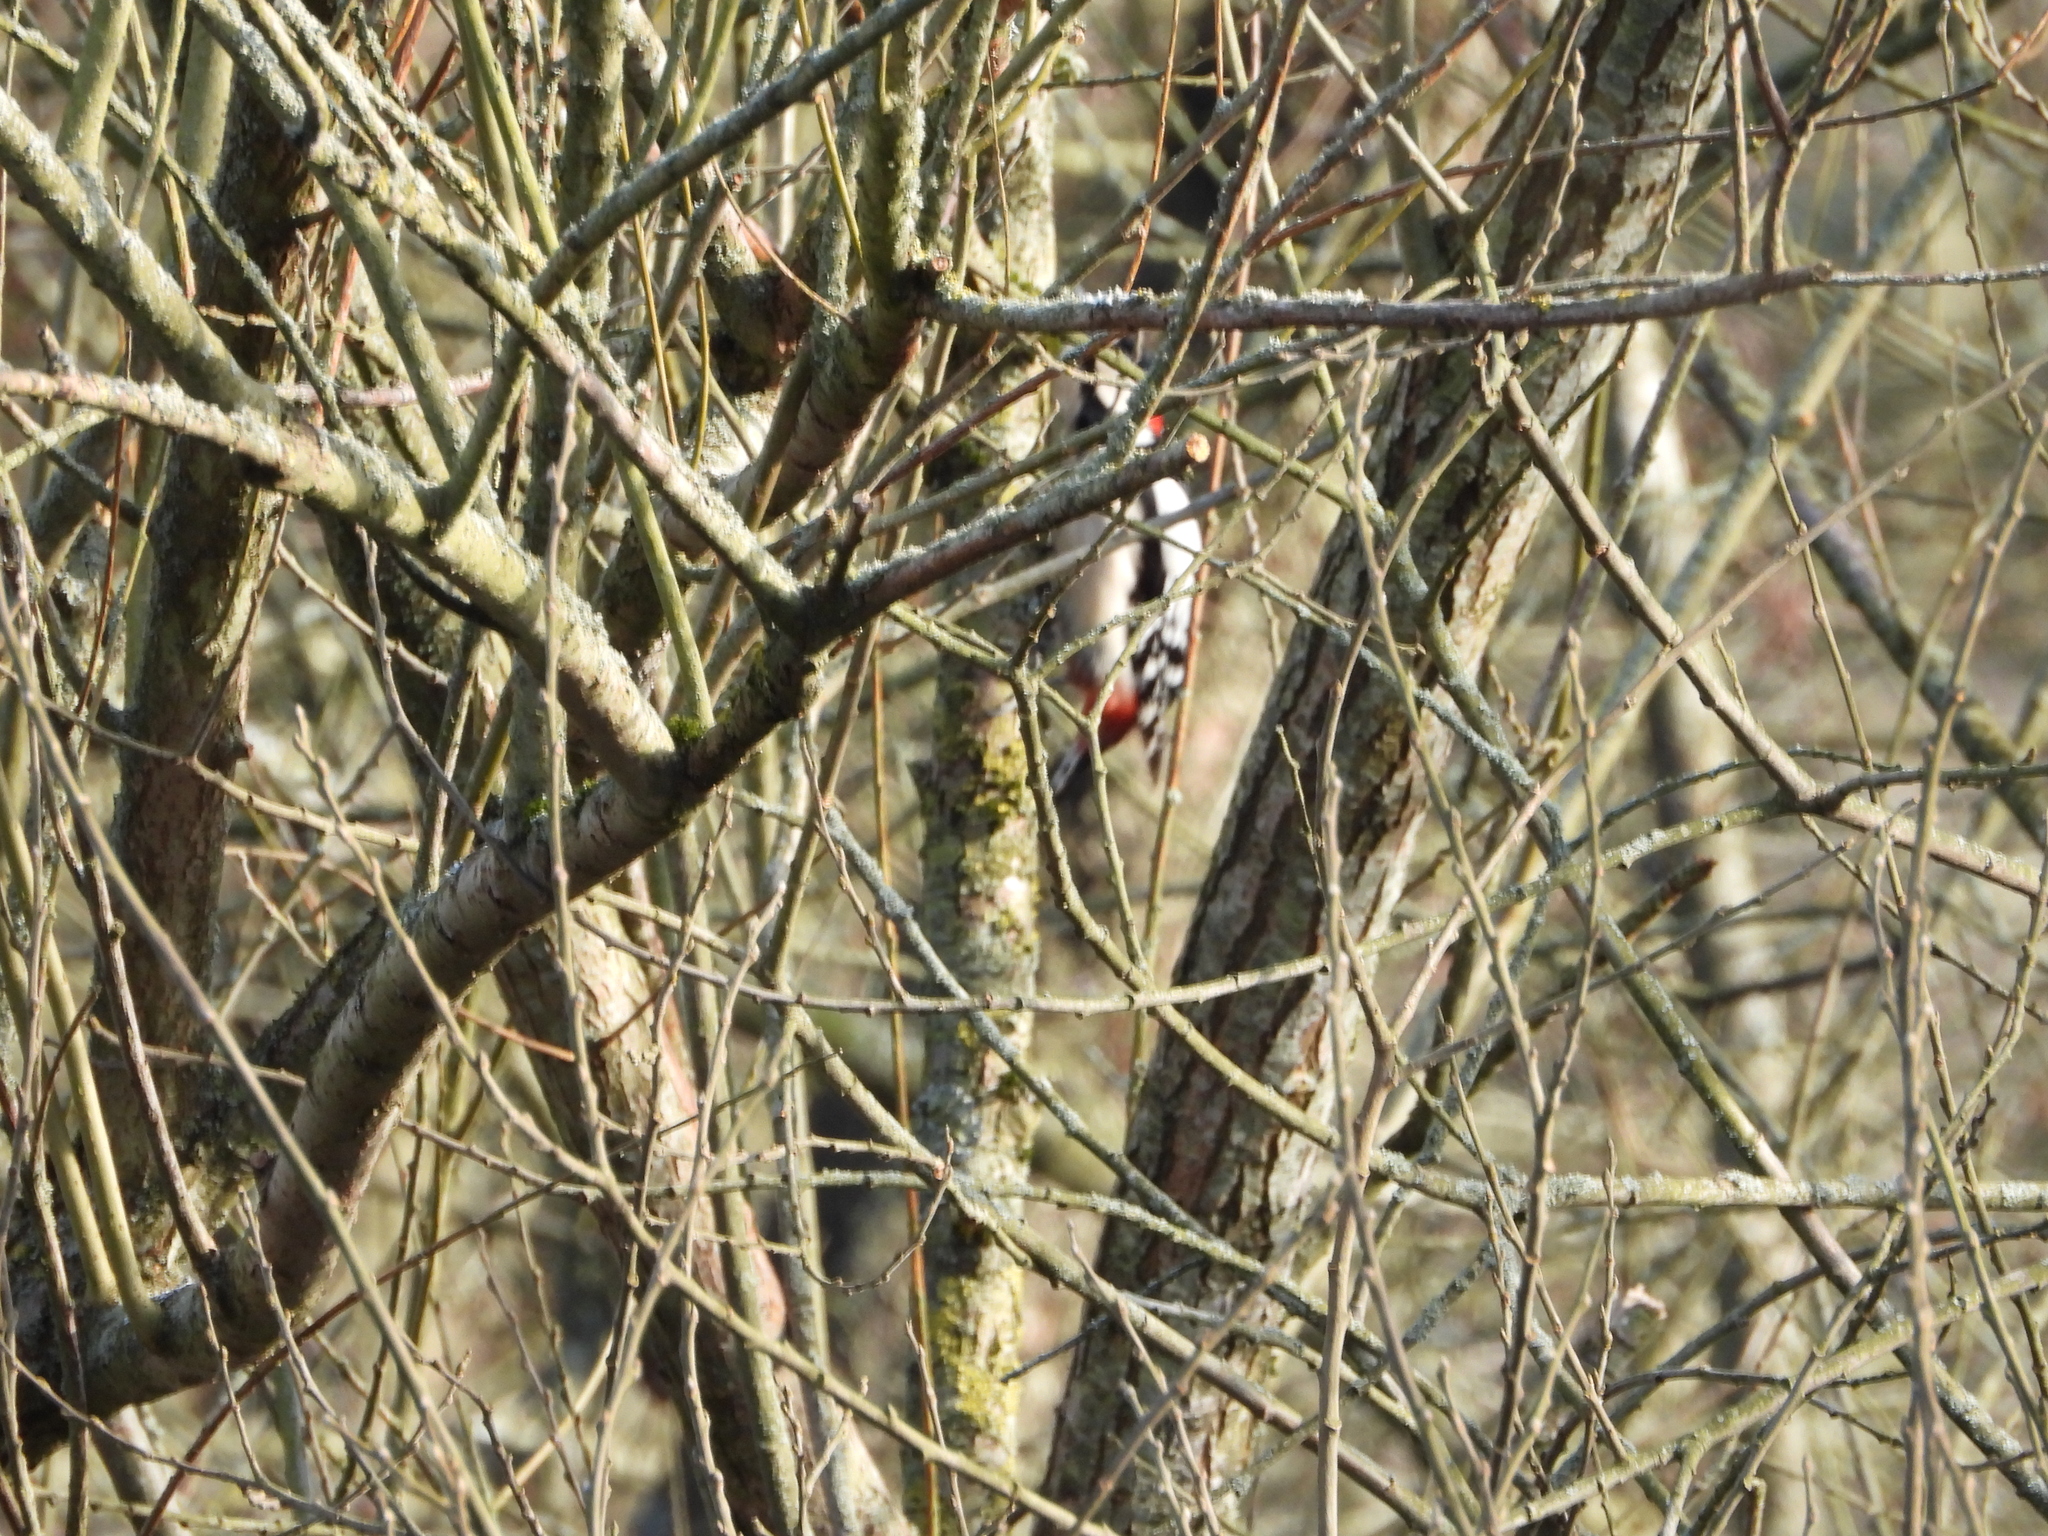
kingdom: Animalia
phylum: Chordata
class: Aves
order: Piciformes
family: Picidae
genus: Dendrocopos
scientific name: Dendrocopos major
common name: Great spotted woodpecker
